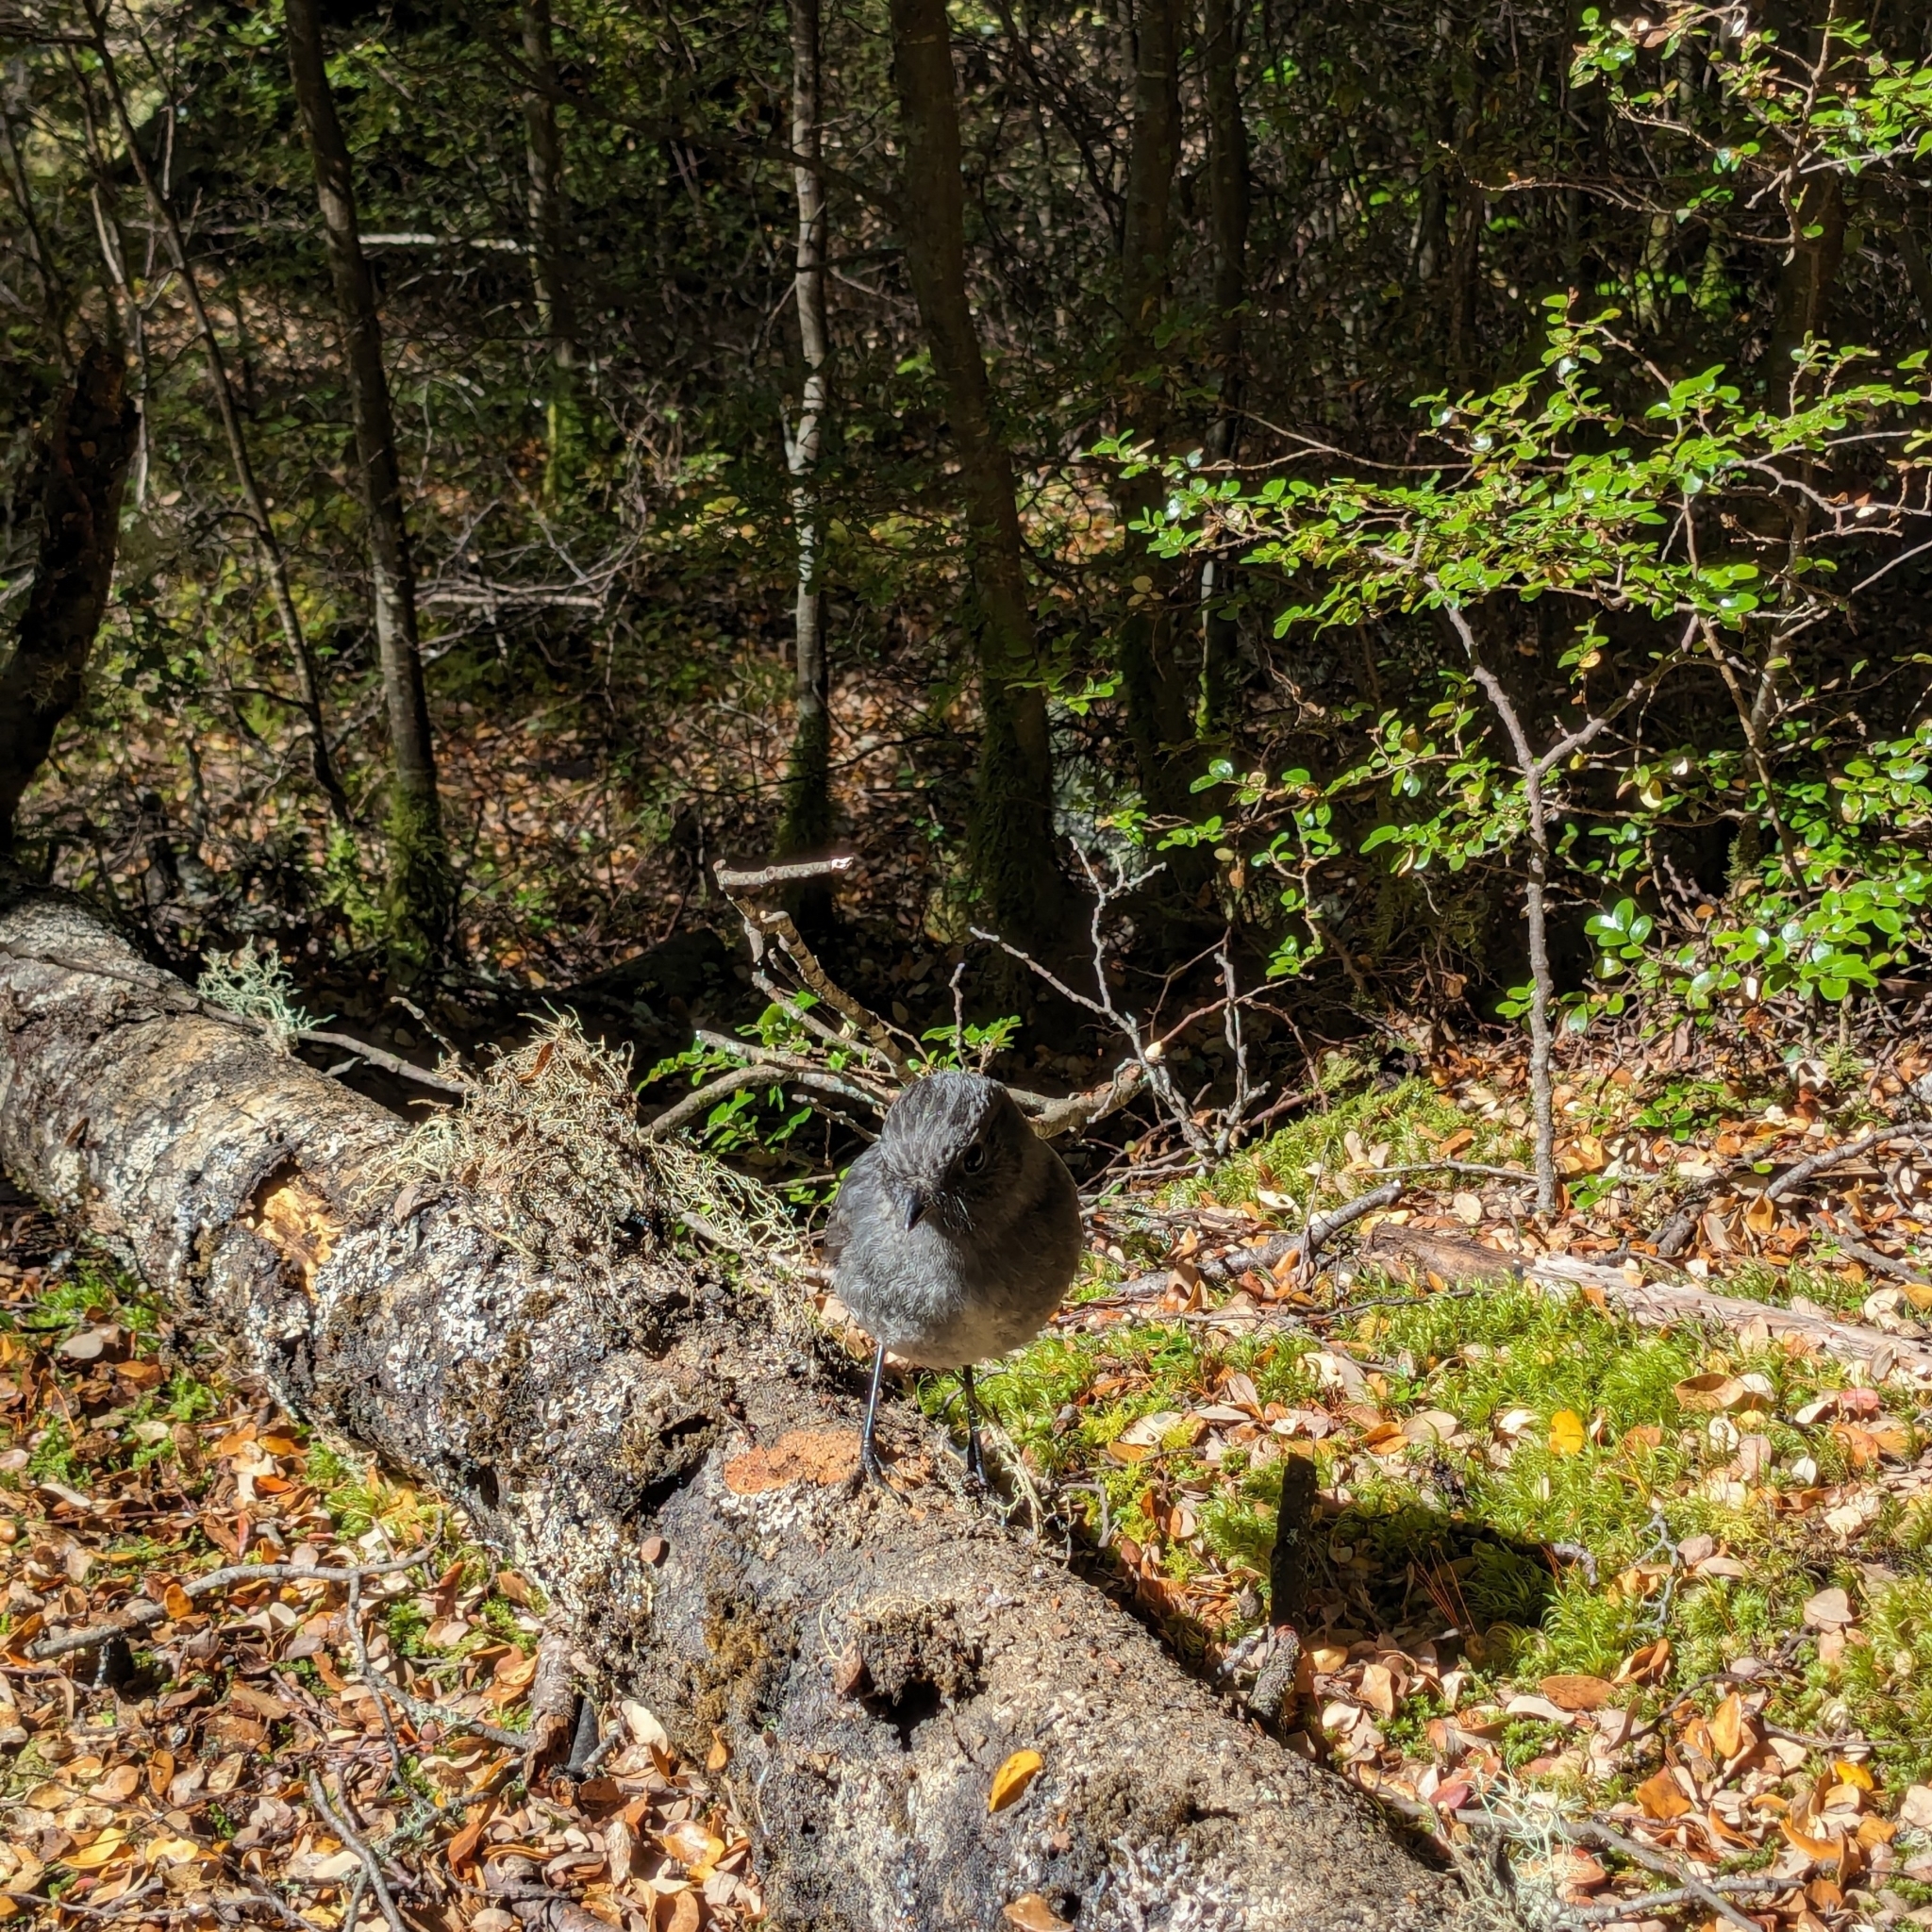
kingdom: Animalia
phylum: Chordata
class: Aves
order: Passeriformes
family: Petroicidae
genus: Petroica
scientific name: Petroica australis
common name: New zealand robin
